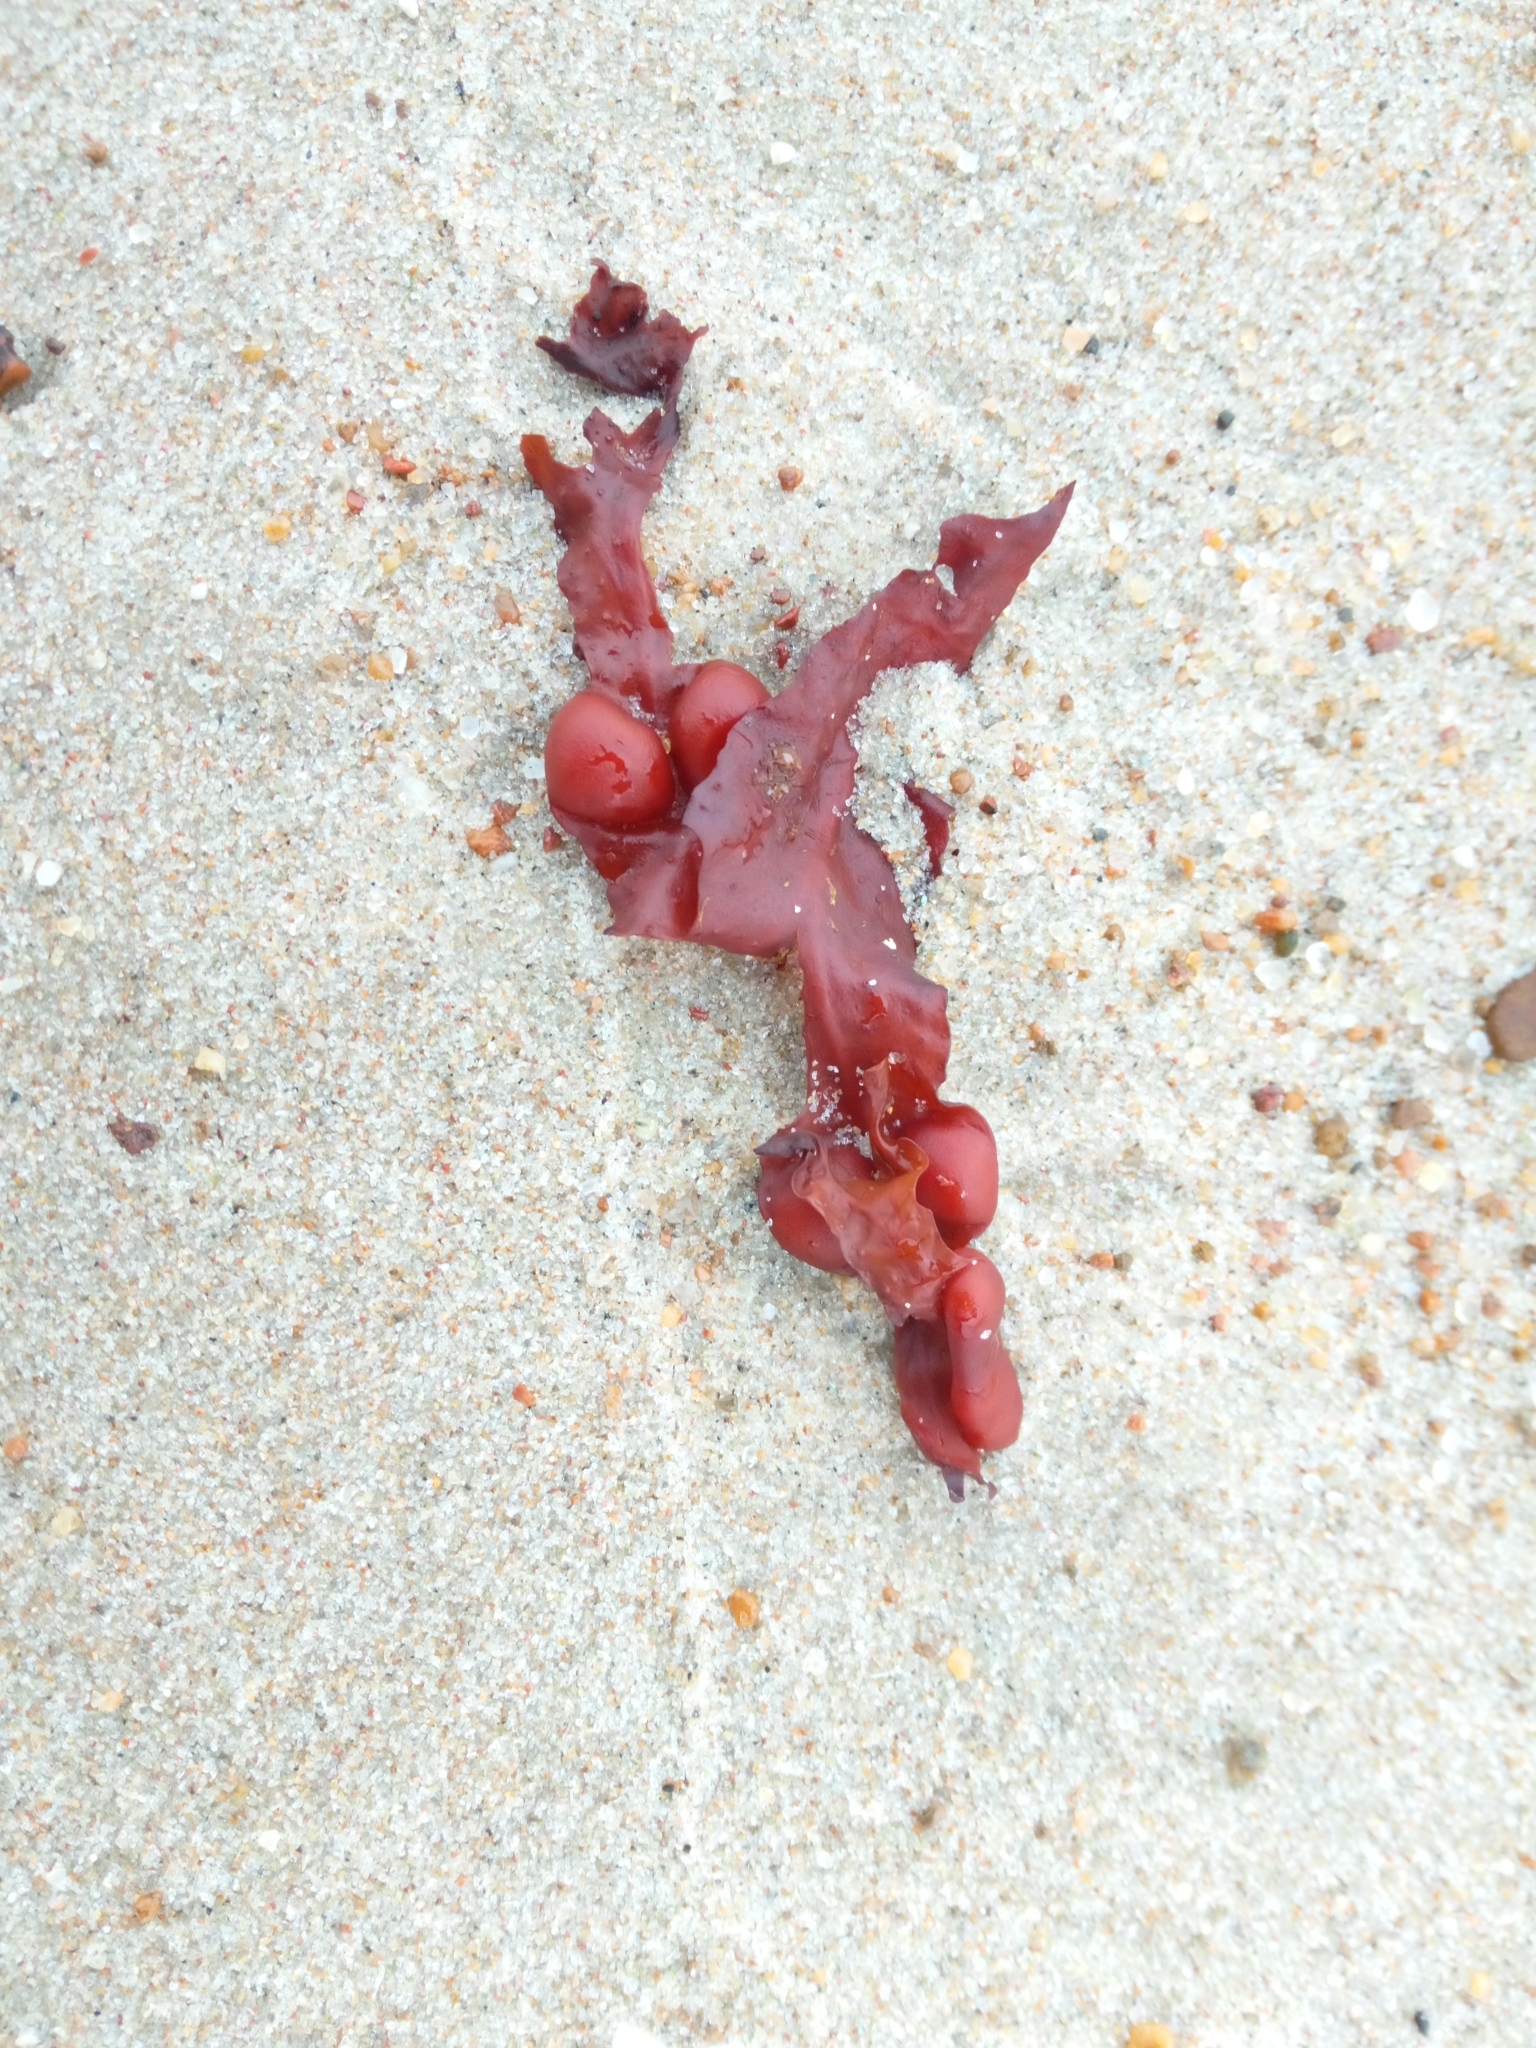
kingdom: Chromista
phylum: Ochrophyta
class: Phaeophyceae
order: Fucales
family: Fucaceae
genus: Fucus
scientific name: Fucus vesiculosus
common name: Bladder wrack
